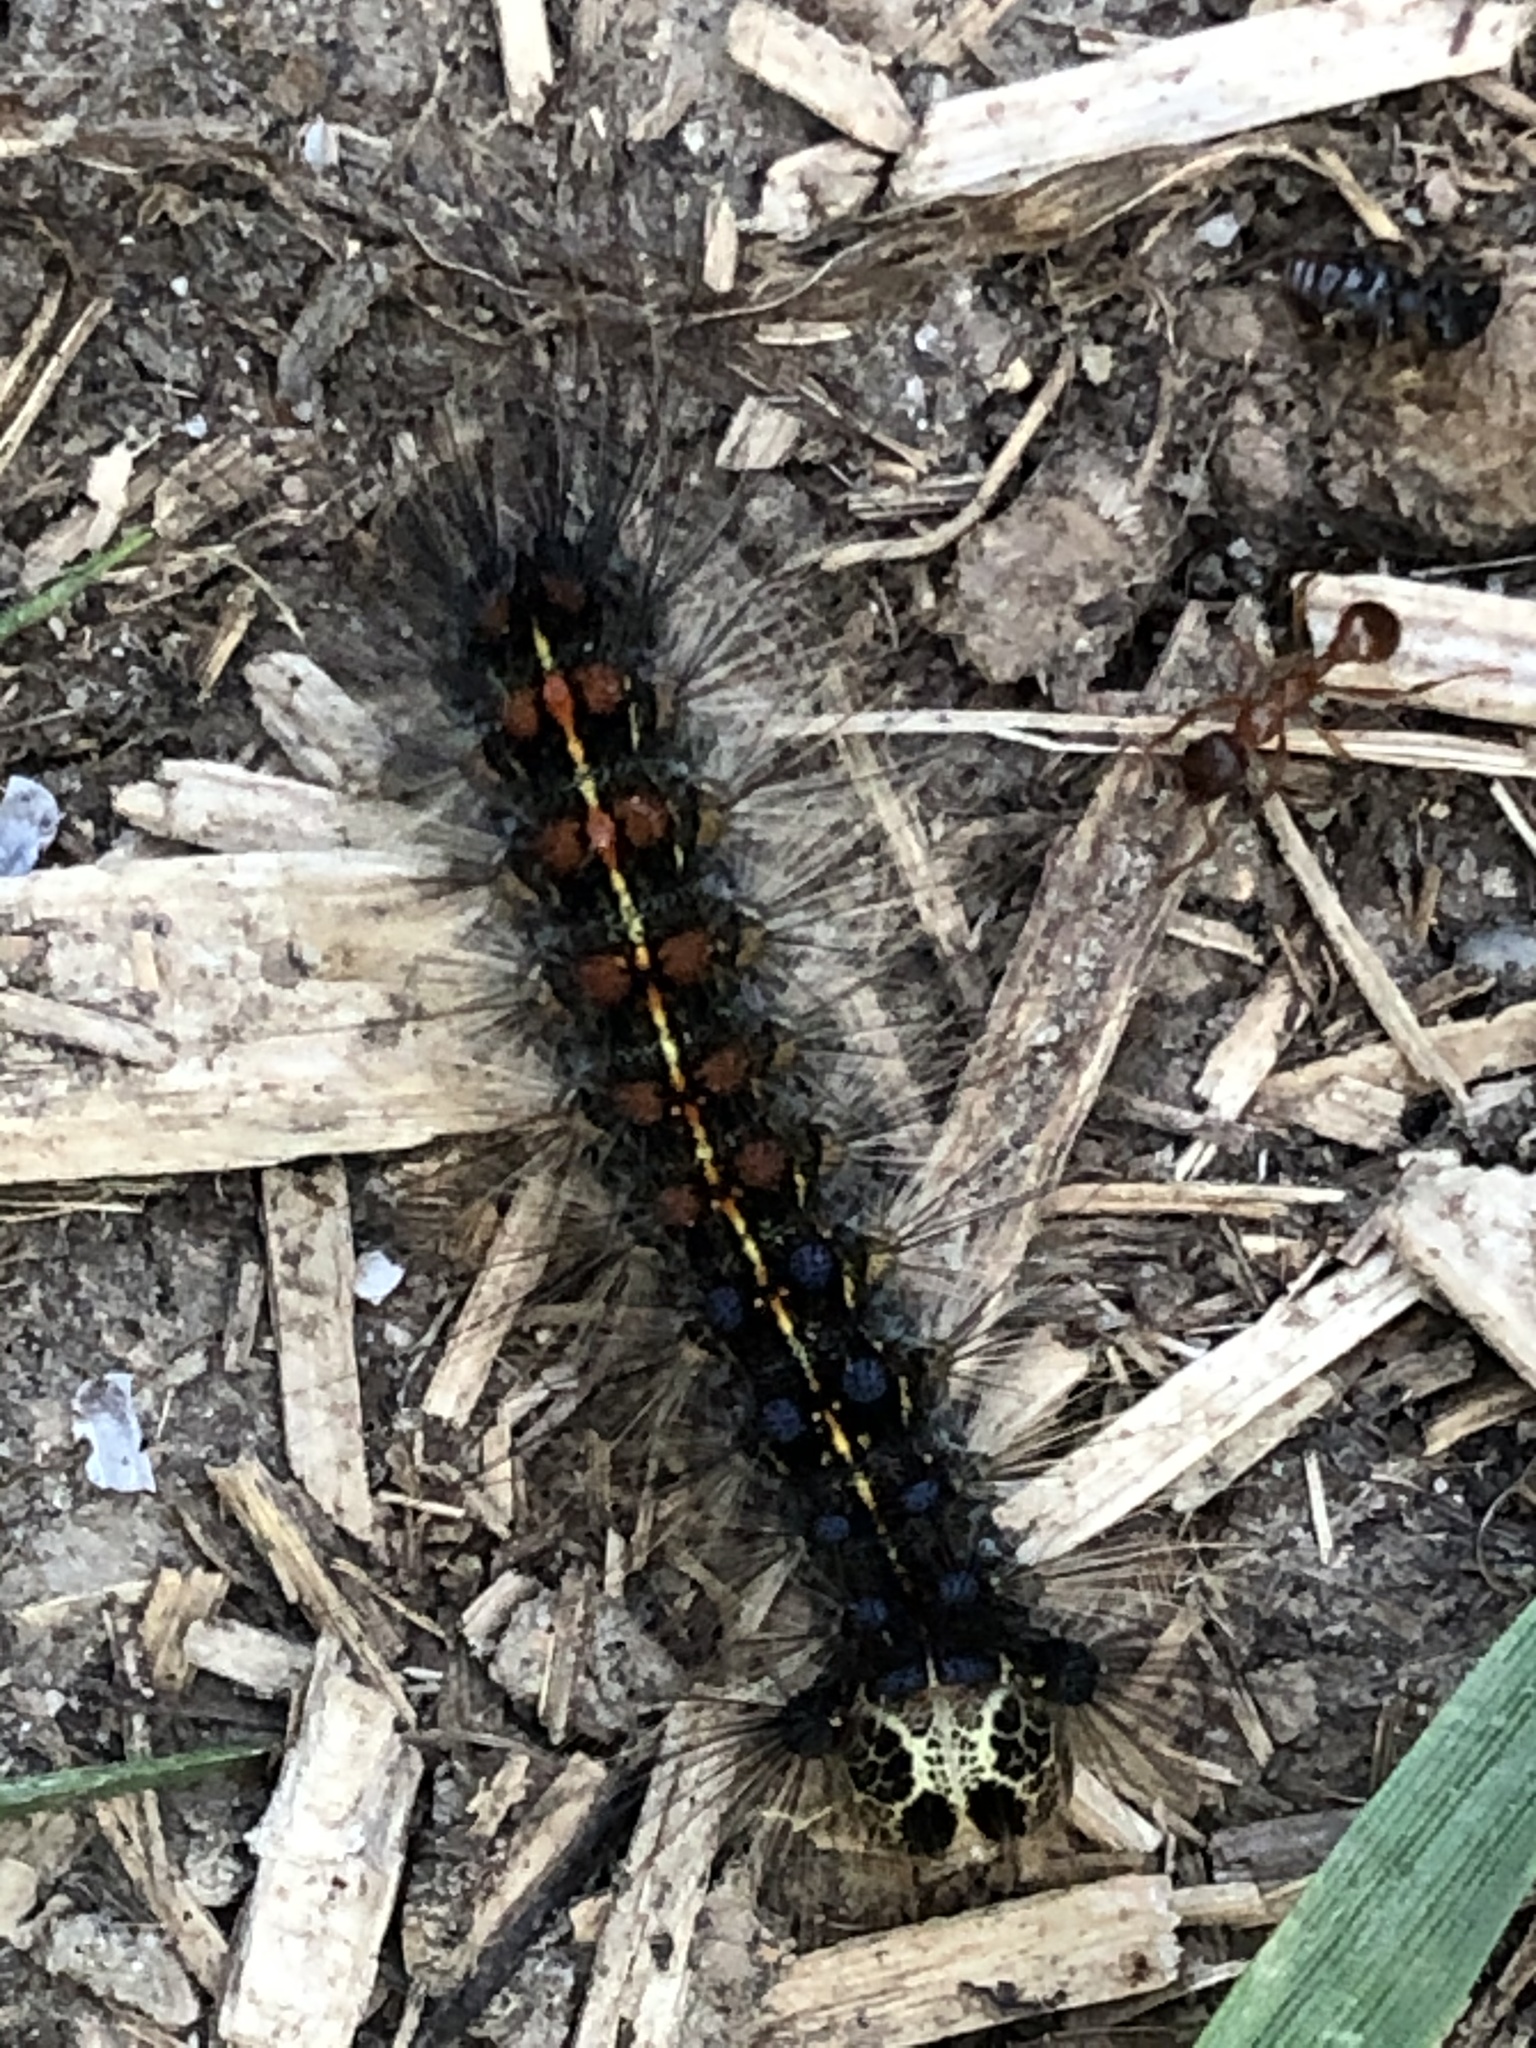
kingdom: Animalia
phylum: Arthropoda
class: Insecta
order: Lepidoptera
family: Erebidae
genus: Lymantria
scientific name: Lymantria dispar
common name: Gypsy moth
